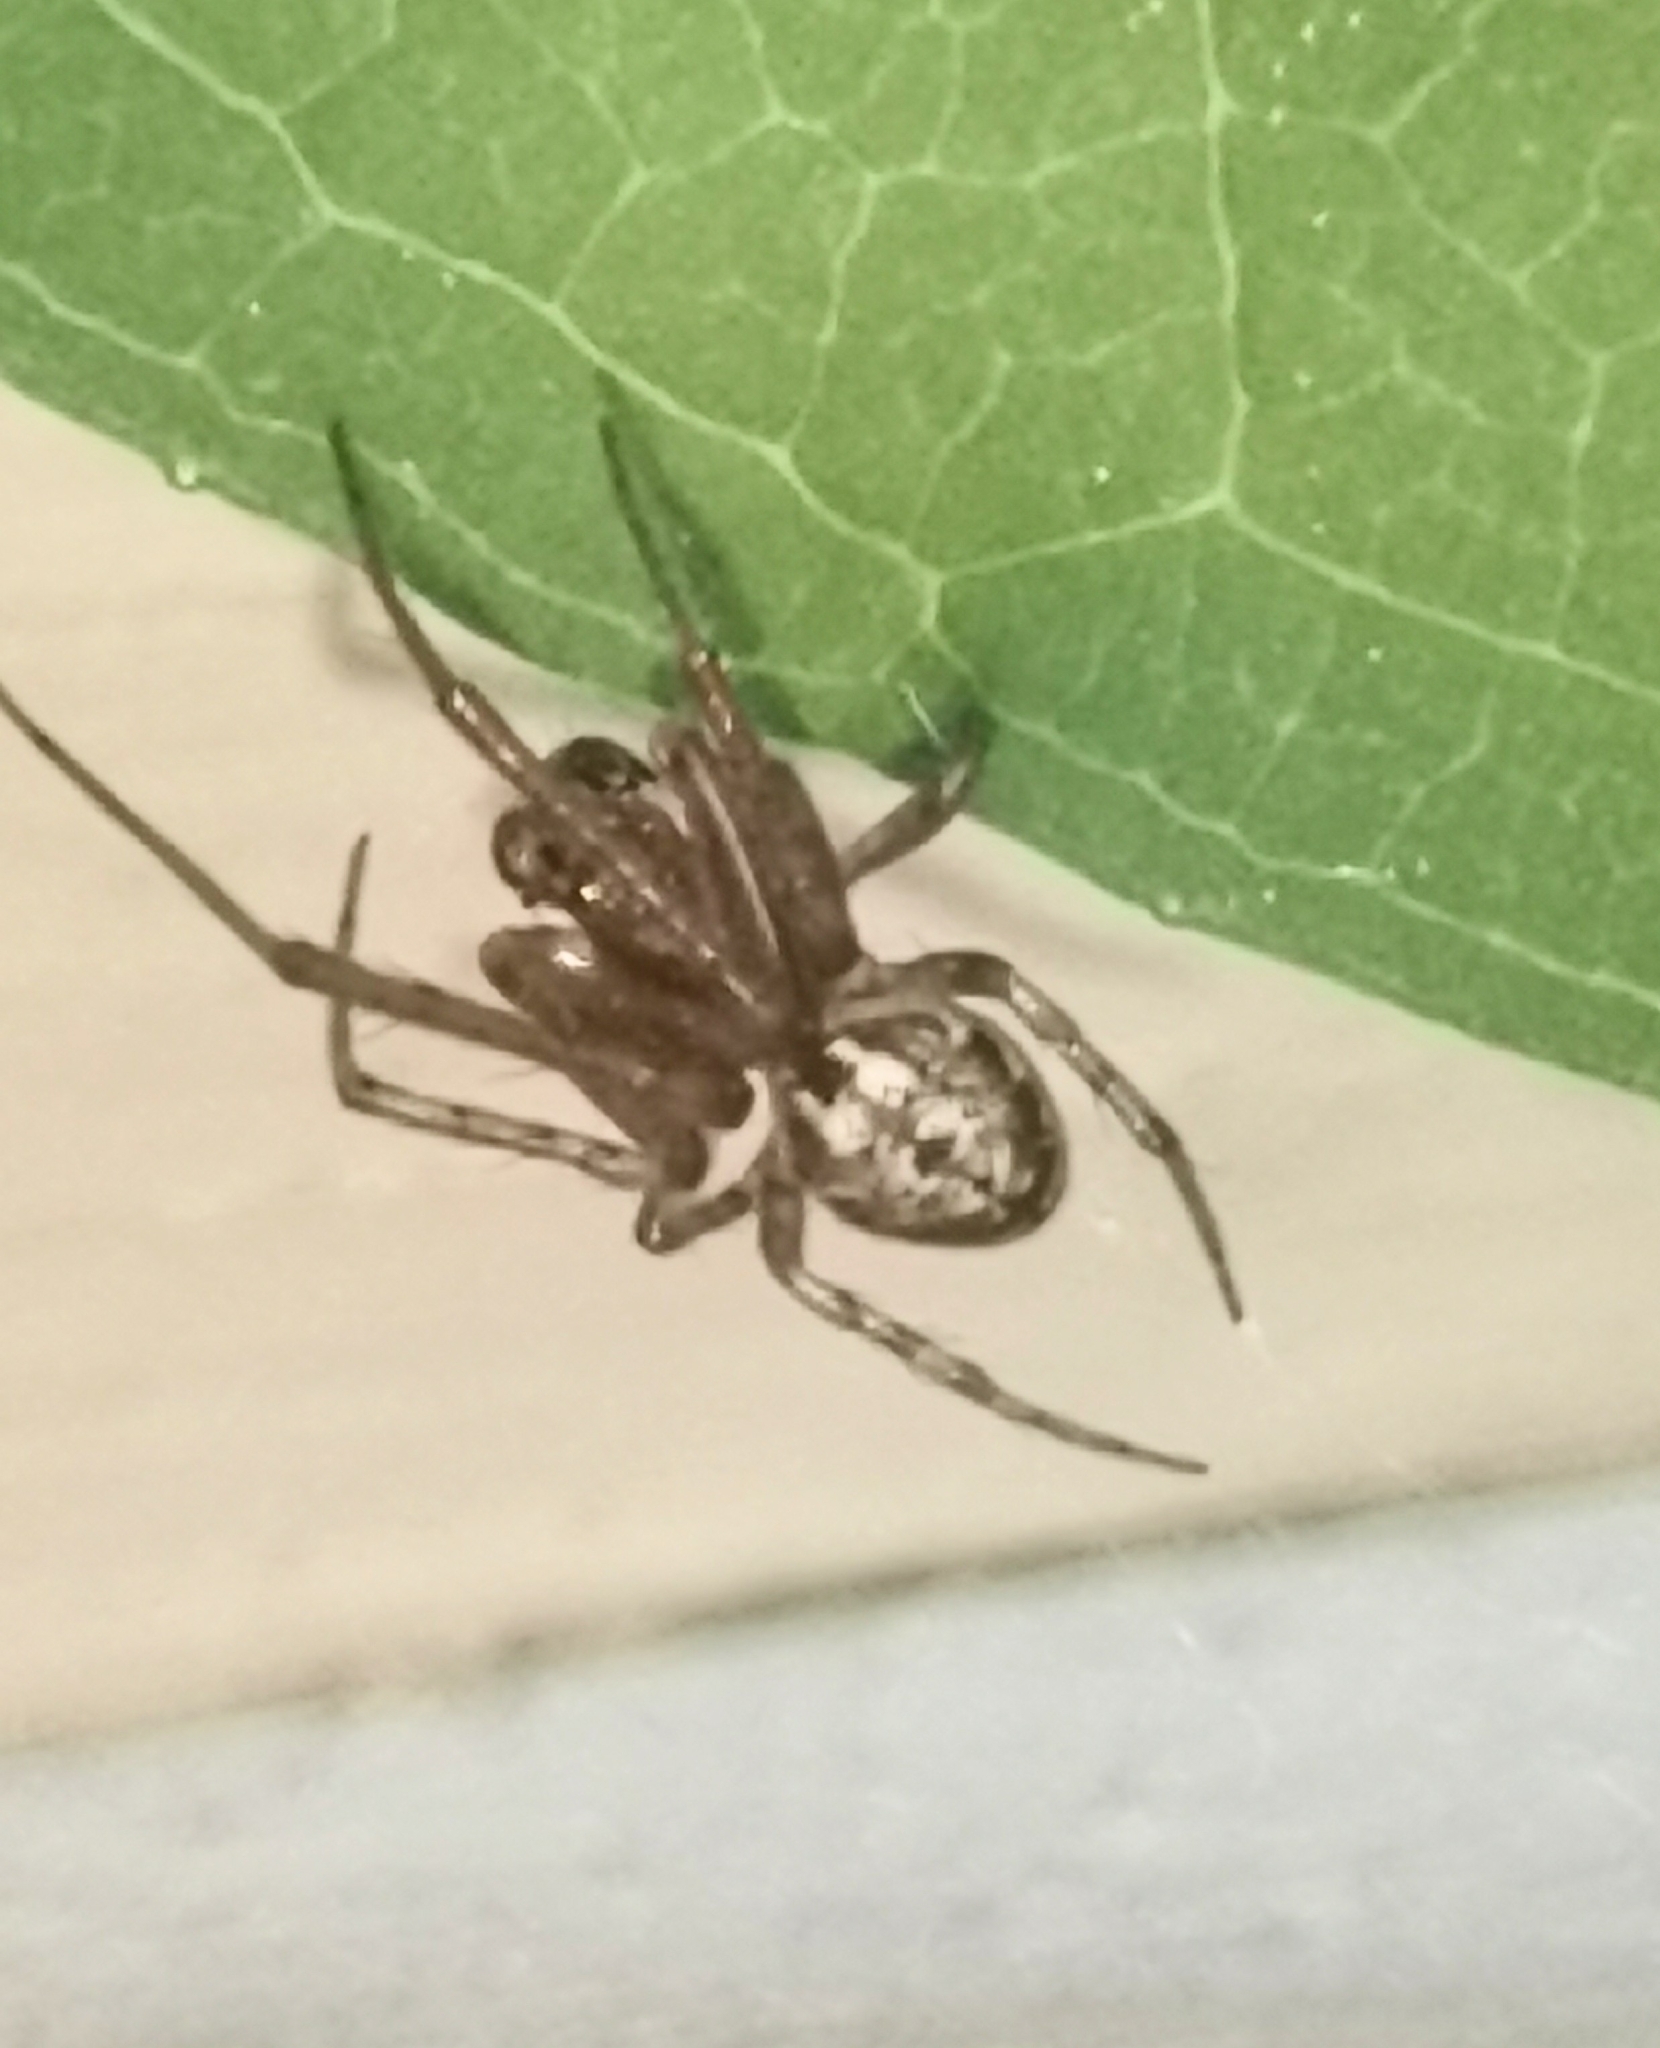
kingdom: Animalia
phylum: Arthropoda
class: Arachnida
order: Araneae
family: Araneidae
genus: Leviellus
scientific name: Leviellus stroemi
